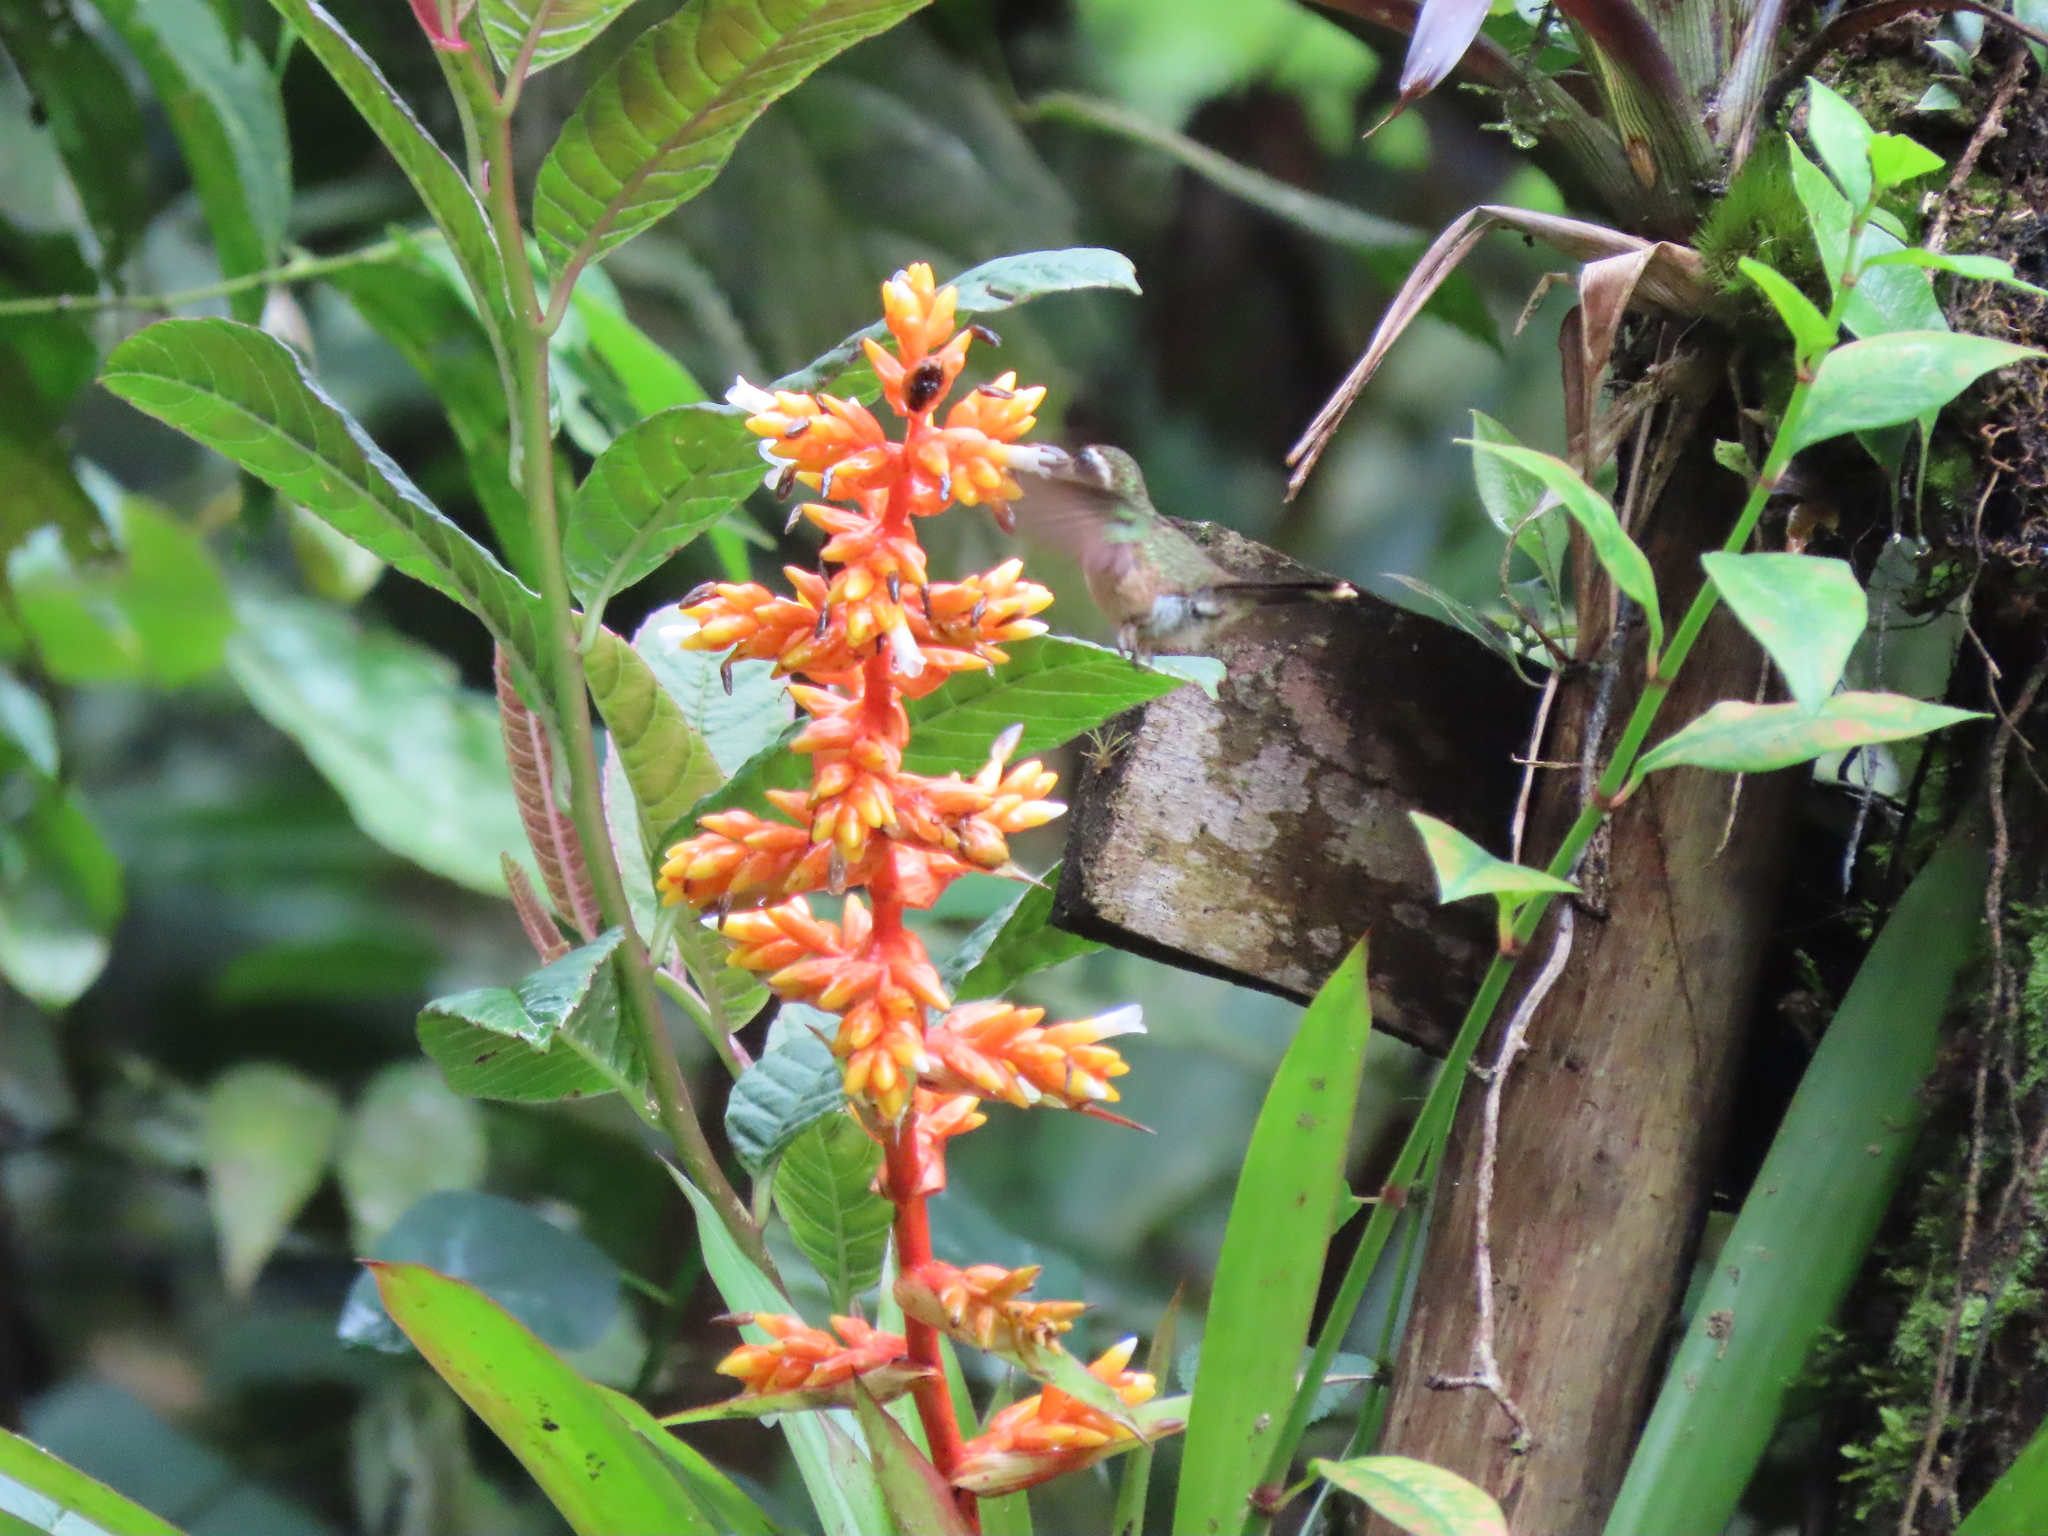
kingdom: Plantae
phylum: Tracheophyta
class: Liliopsida
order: Poales
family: Bromeliaceae
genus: Guzmania
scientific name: Guzmania multiflora
